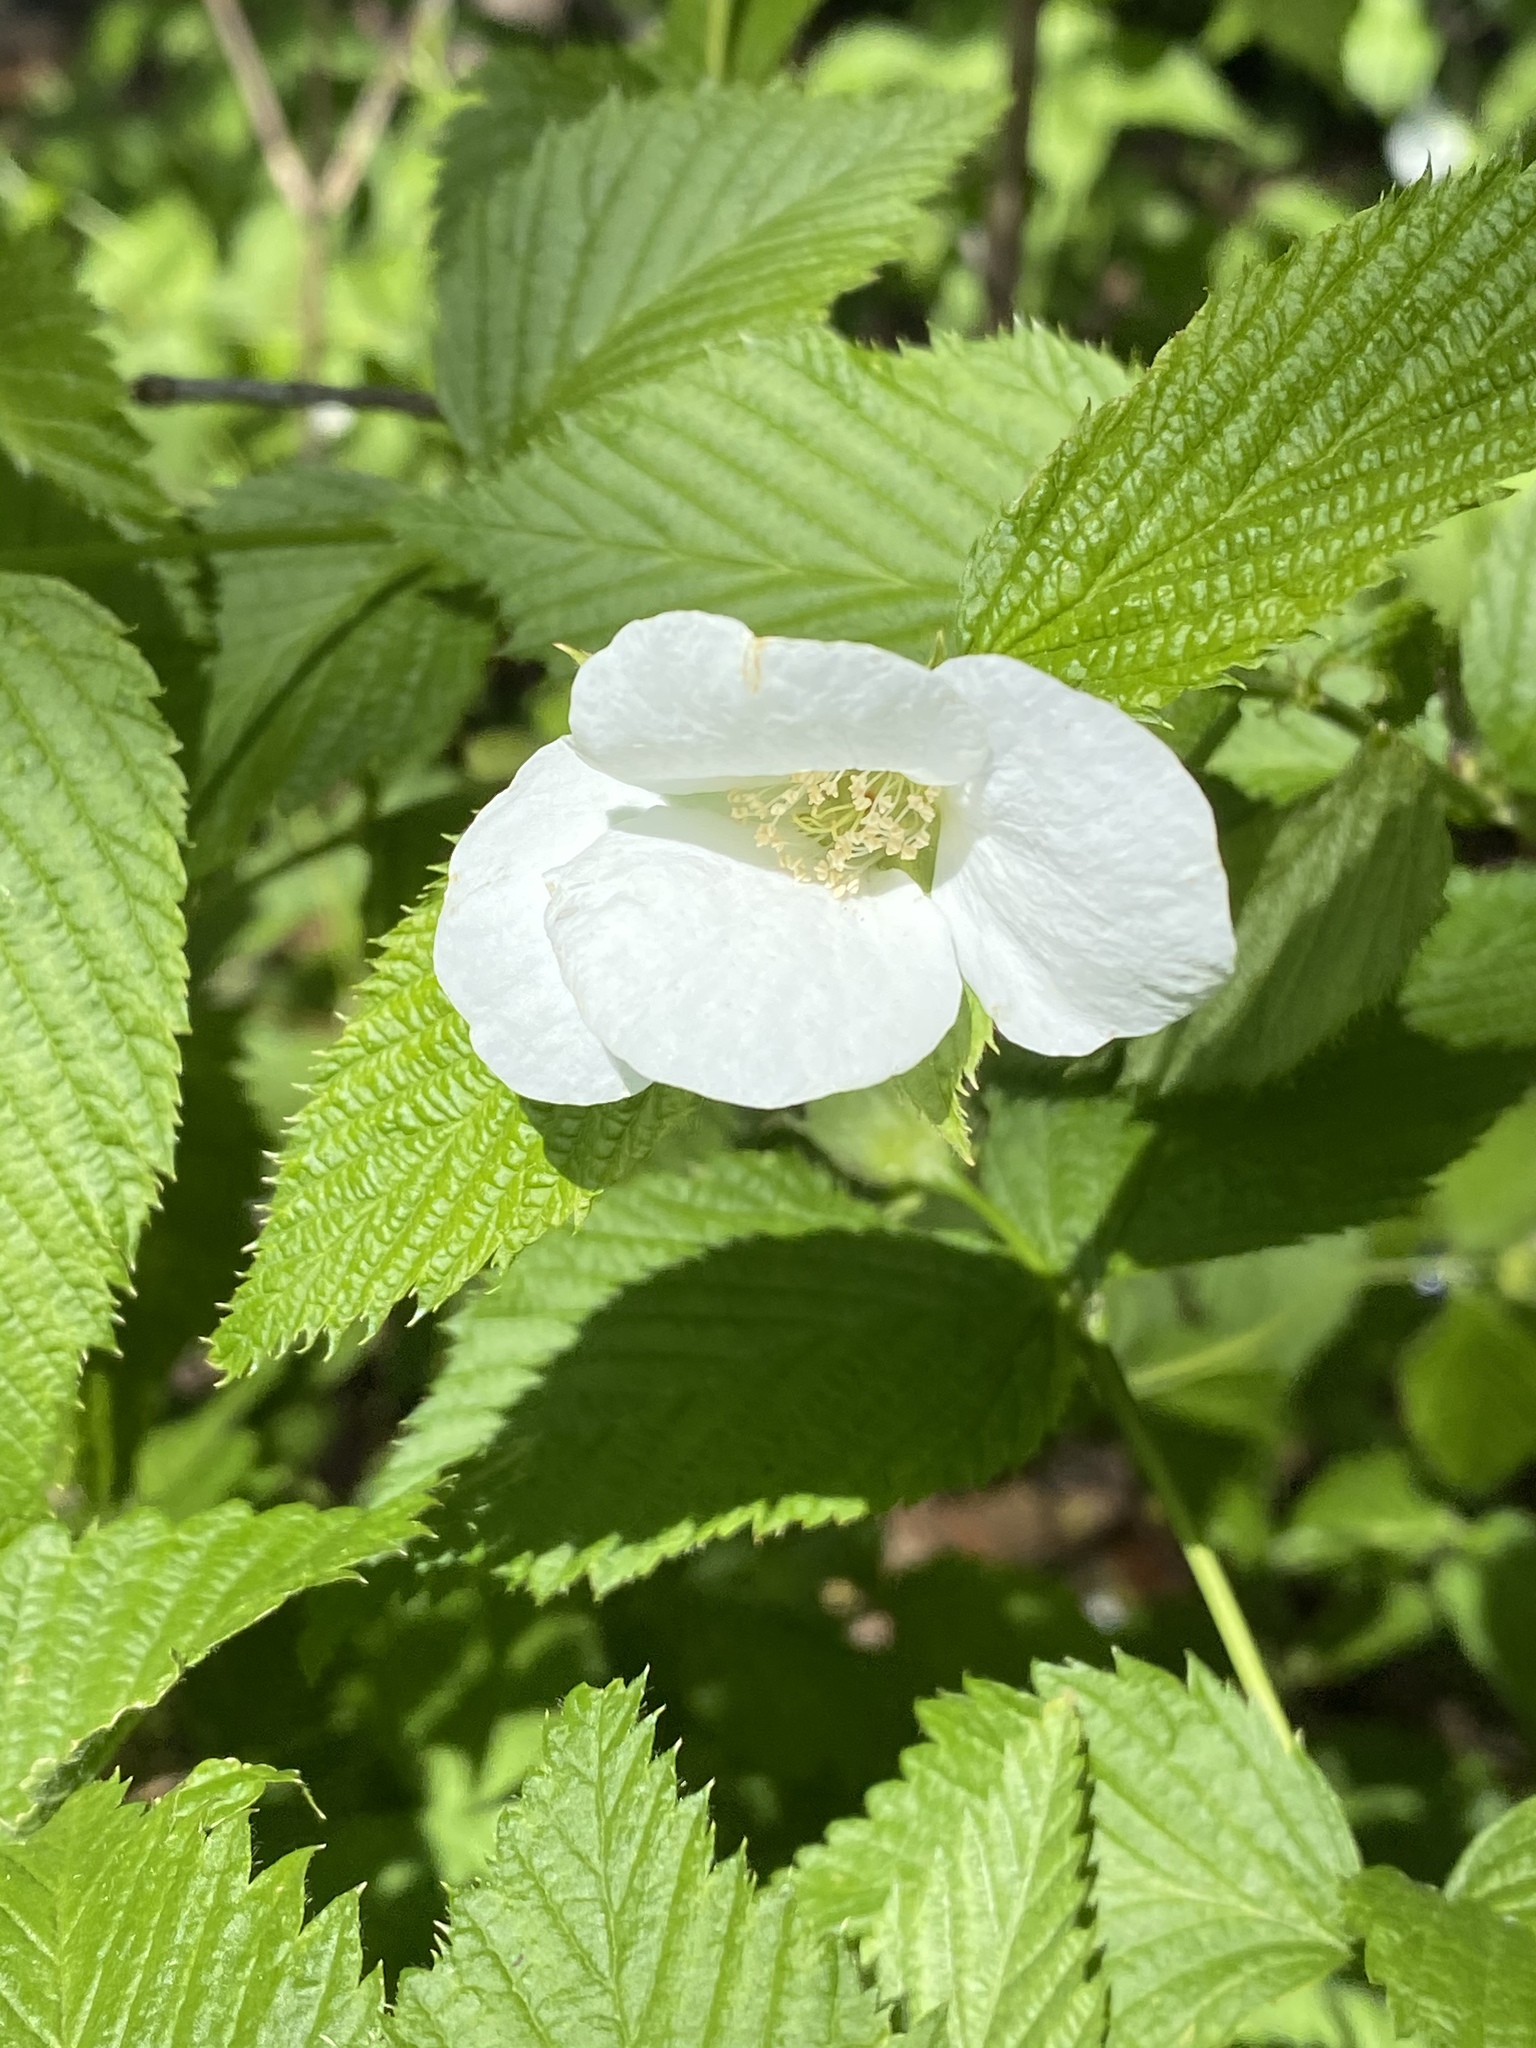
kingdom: Plantae
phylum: Tracheophyta
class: Magnoliopsida
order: Rosales
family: Rosaceae
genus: Rhodotypos
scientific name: Rhodotypos scandens
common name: Jetbead
